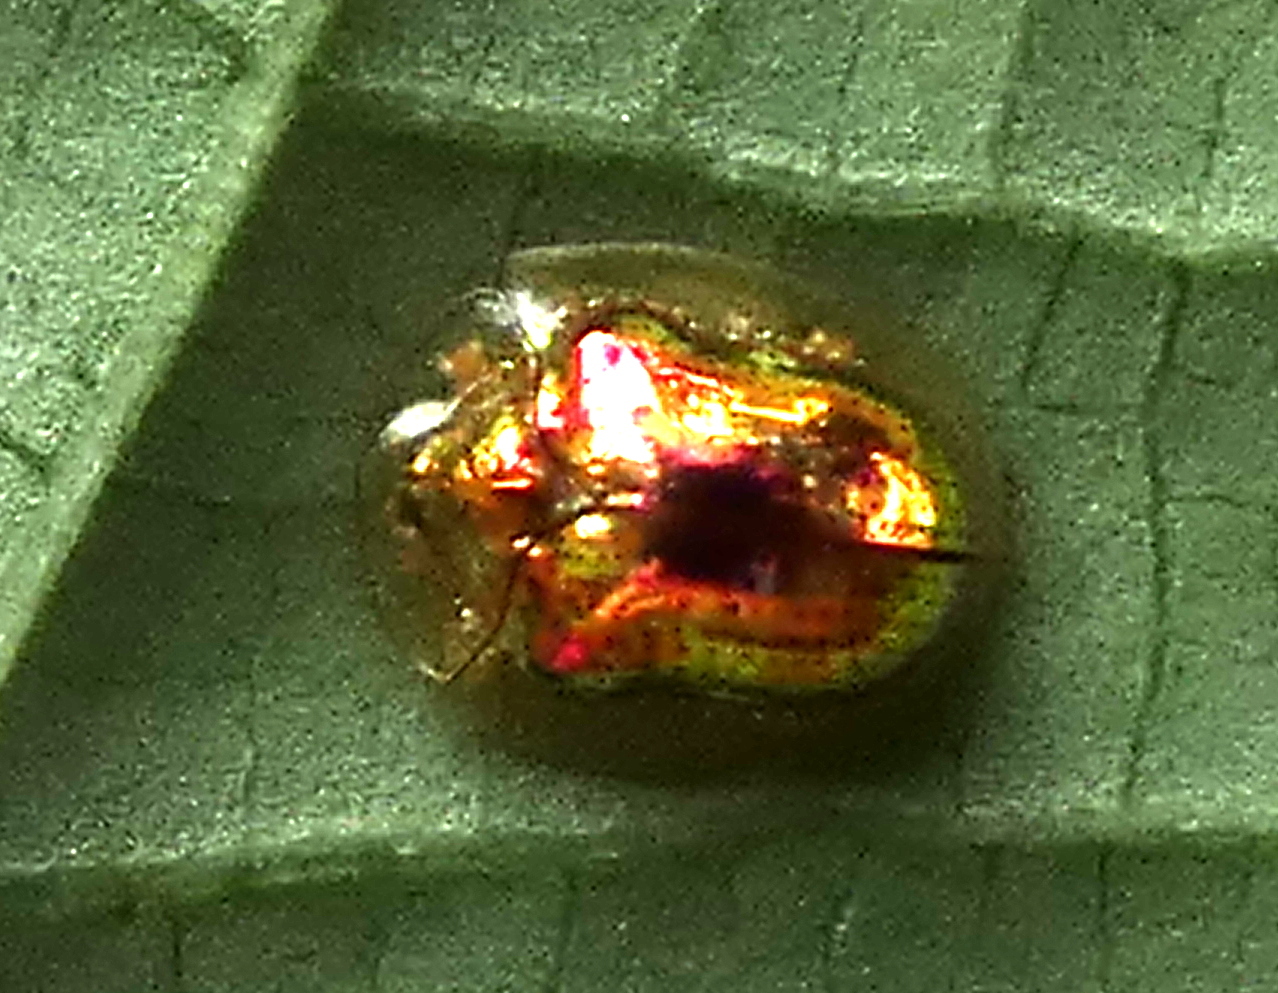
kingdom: Animalia
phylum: Arthropoda
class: Insecta
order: Coleoptera
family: Chrysomelidae
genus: Charidotella
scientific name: Charidotella zona
